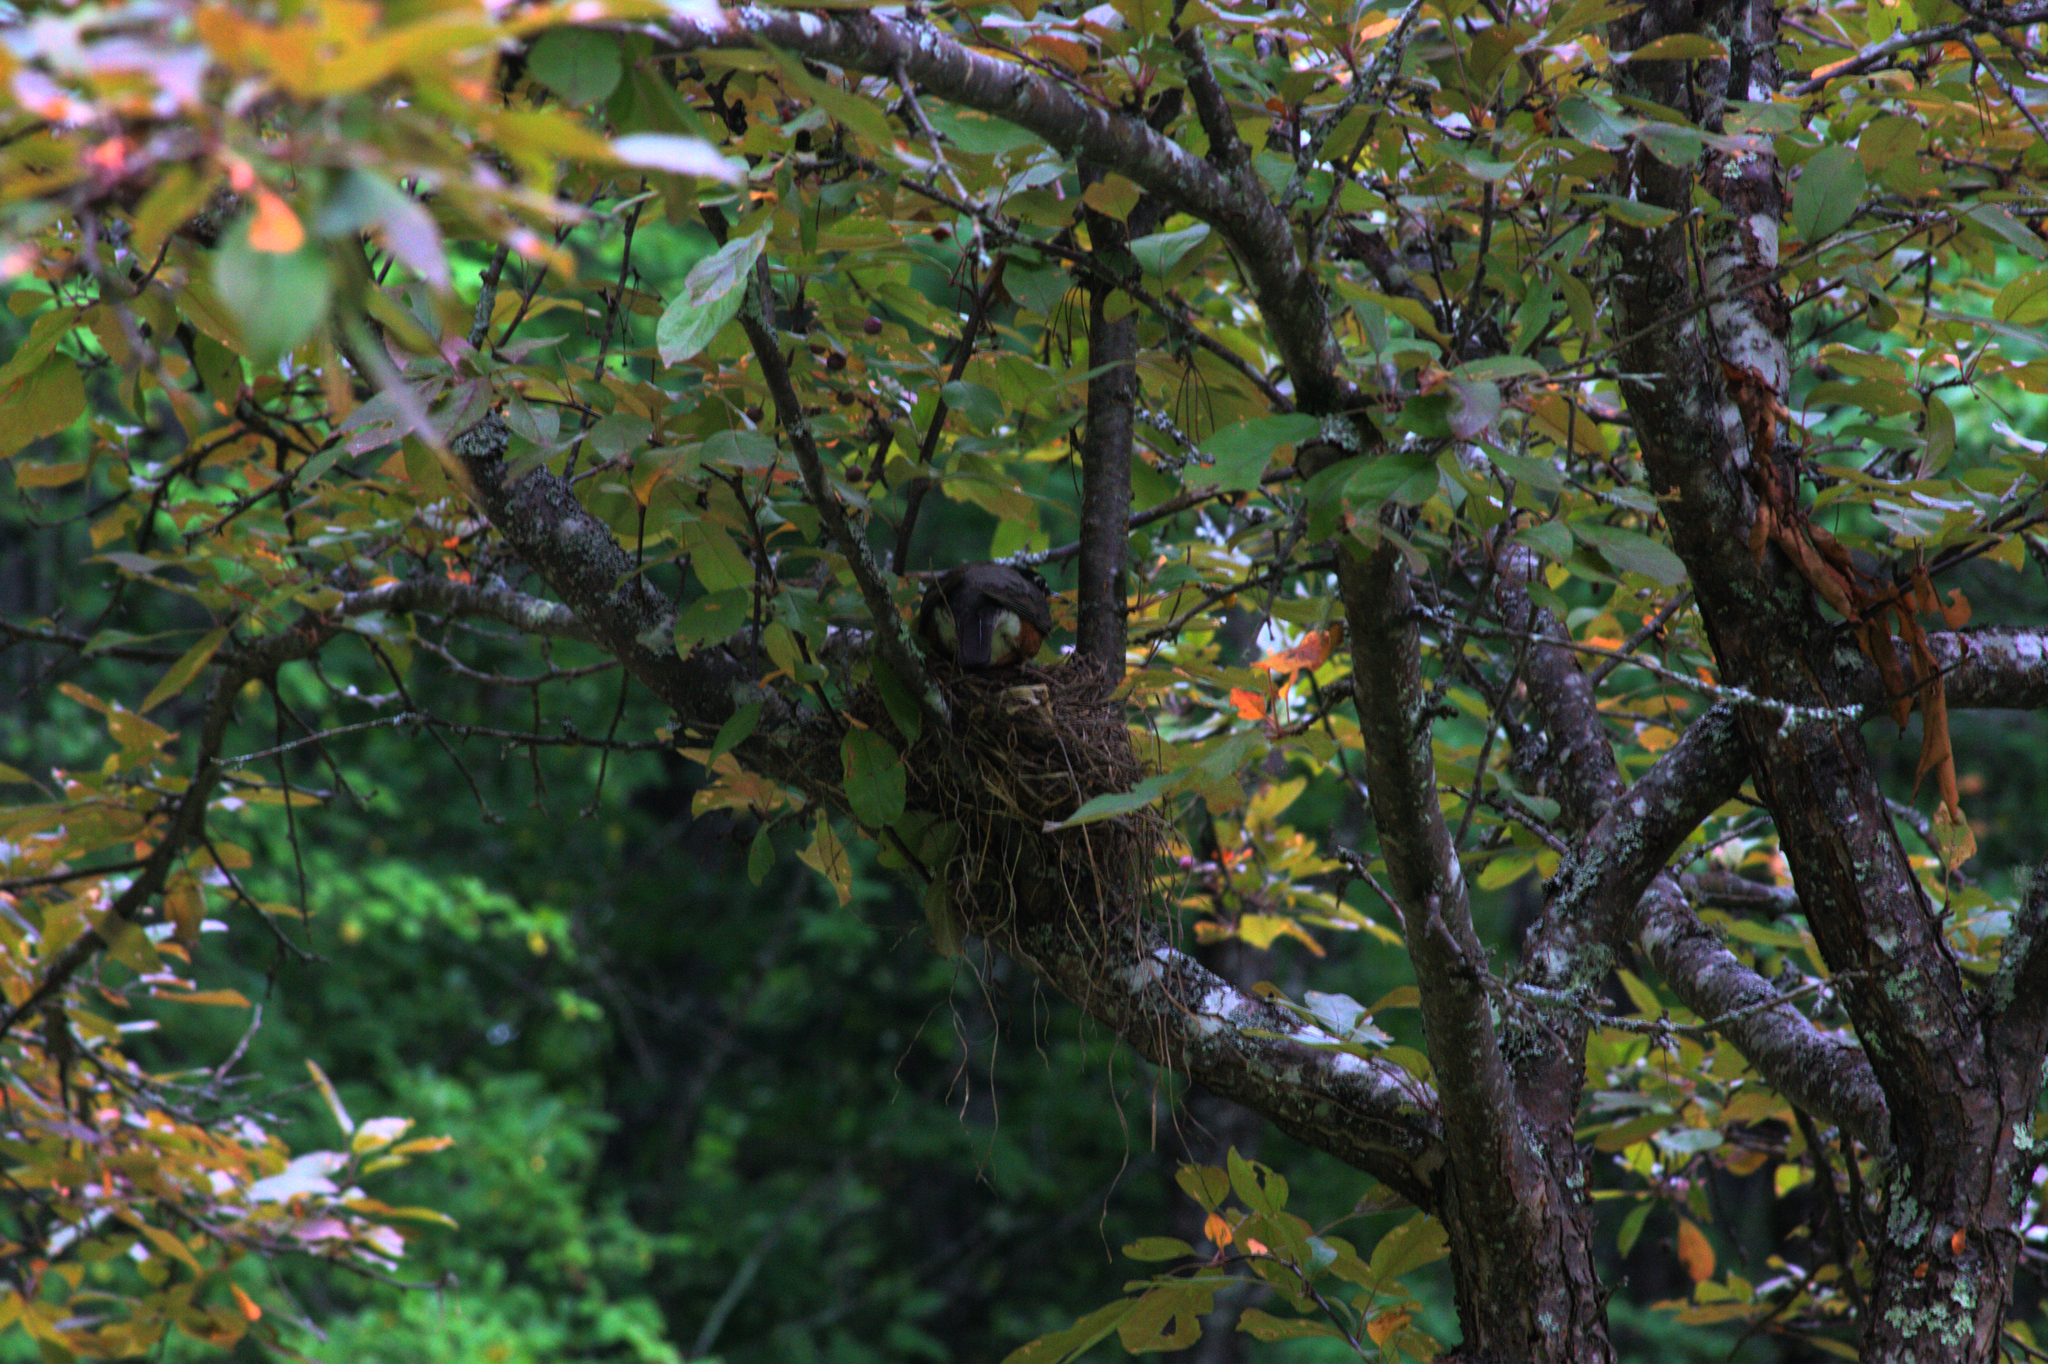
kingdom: Animalia
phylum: Chordata
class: Aves
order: Passeriformes
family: Turdidae
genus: Turdus
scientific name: Turdus migratorius
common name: American robin
